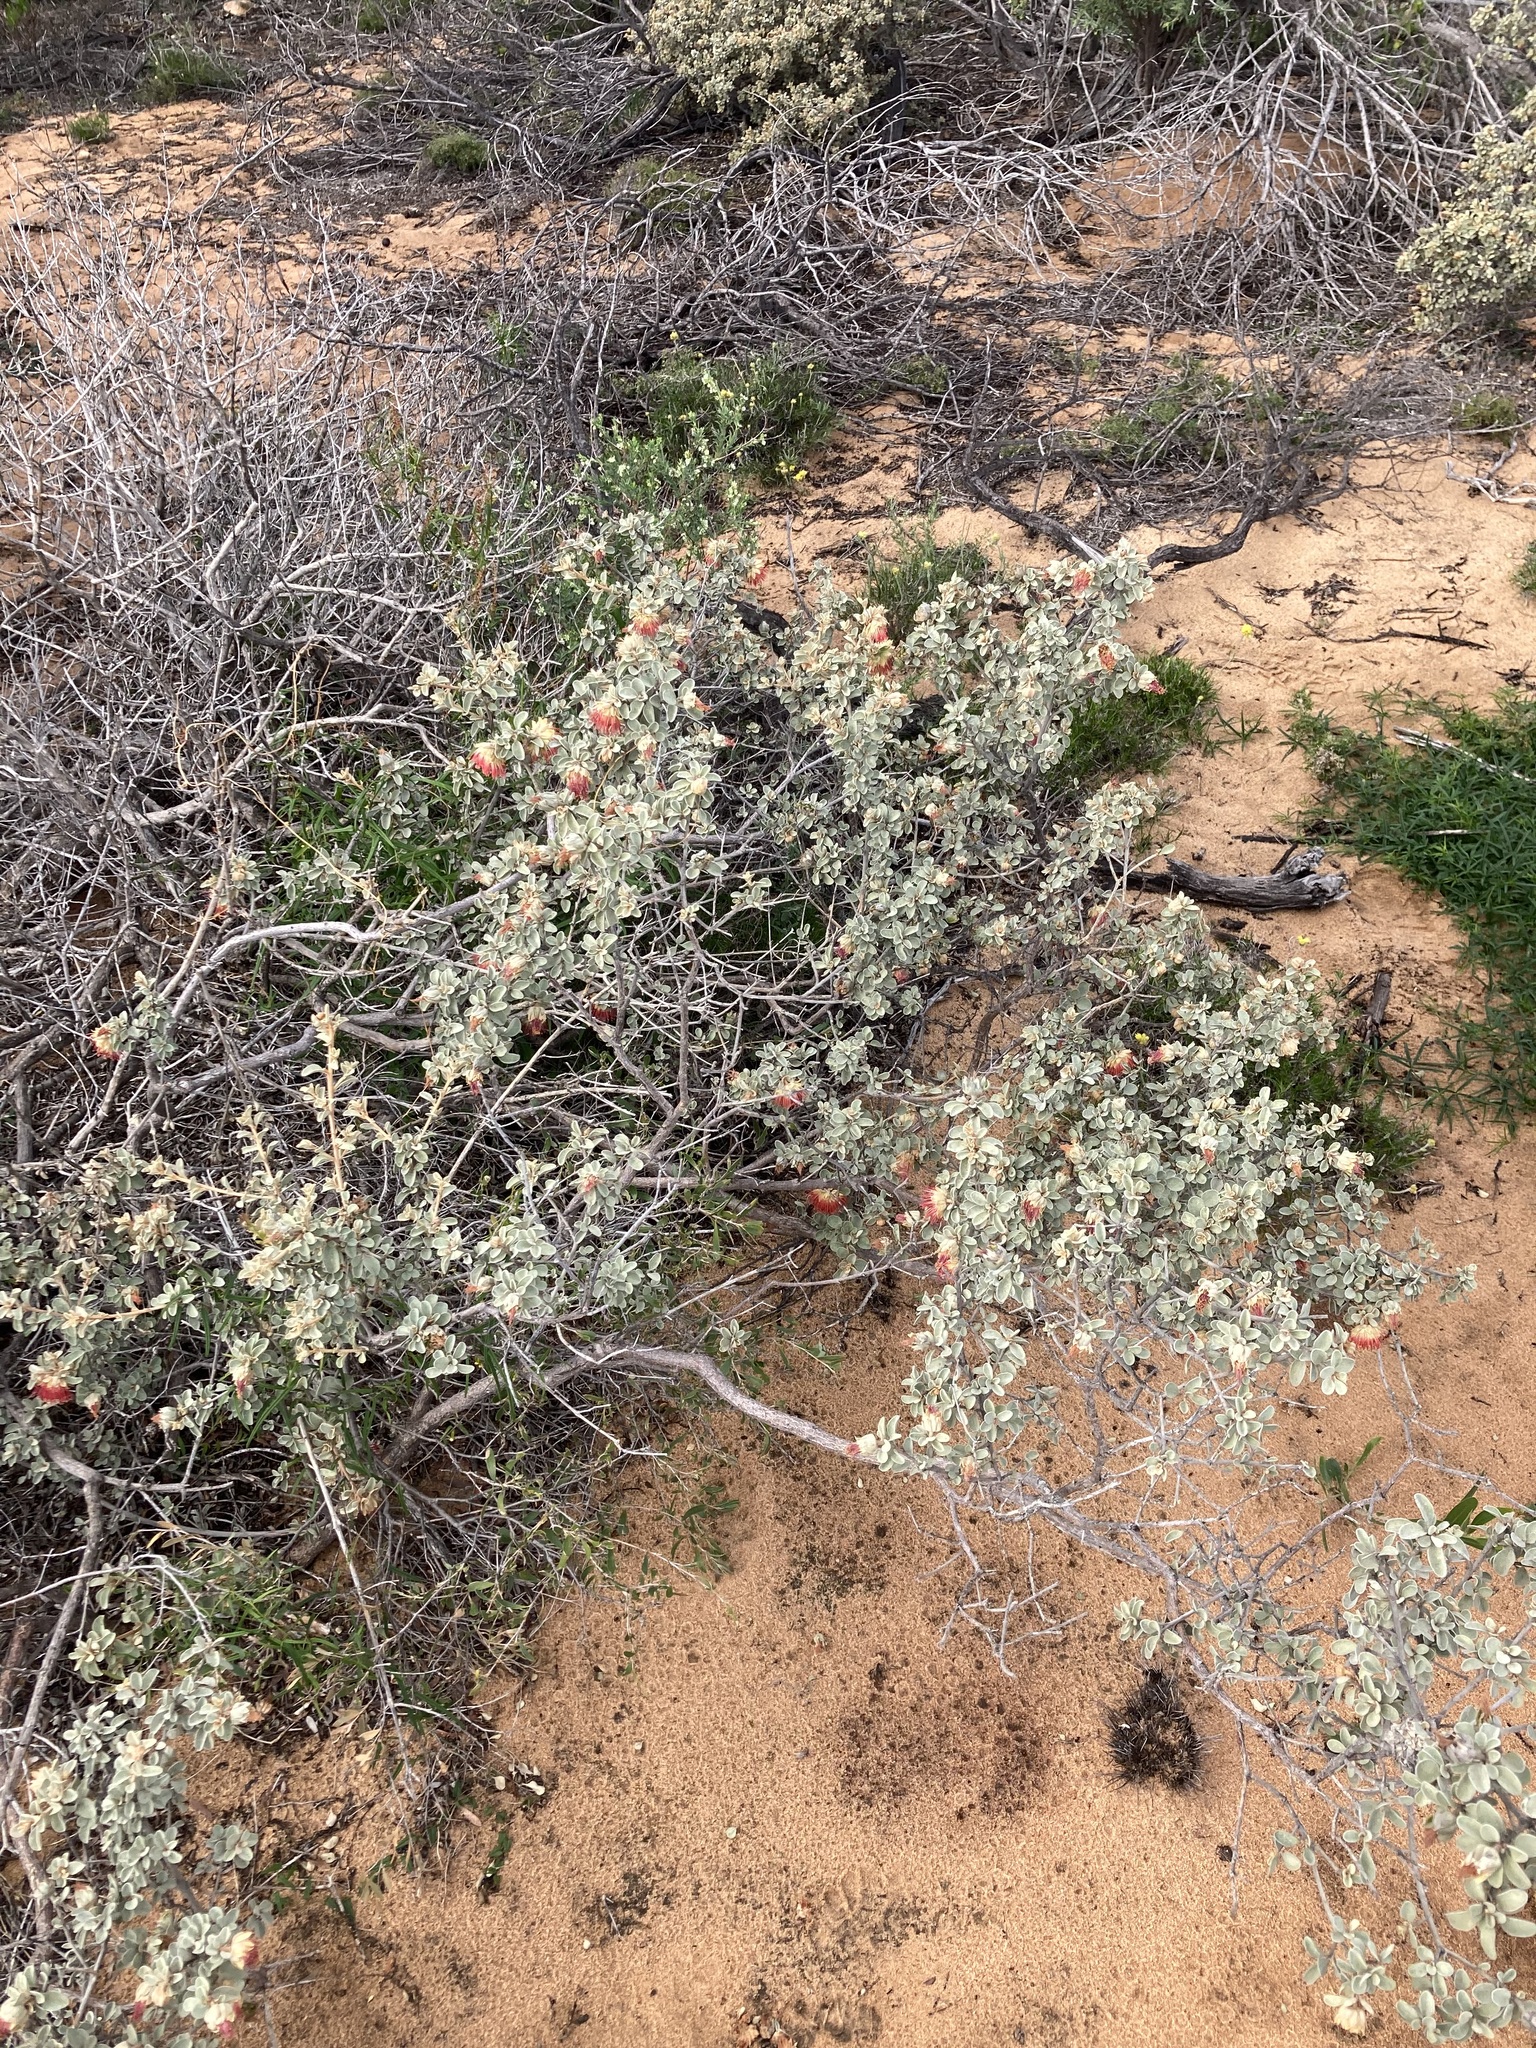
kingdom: Plantae
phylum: Tracheophyta
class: Magnoliopsida
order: Sapindales
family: Rutaceae
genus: Diplolaena
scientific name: Diplolaena mollis
